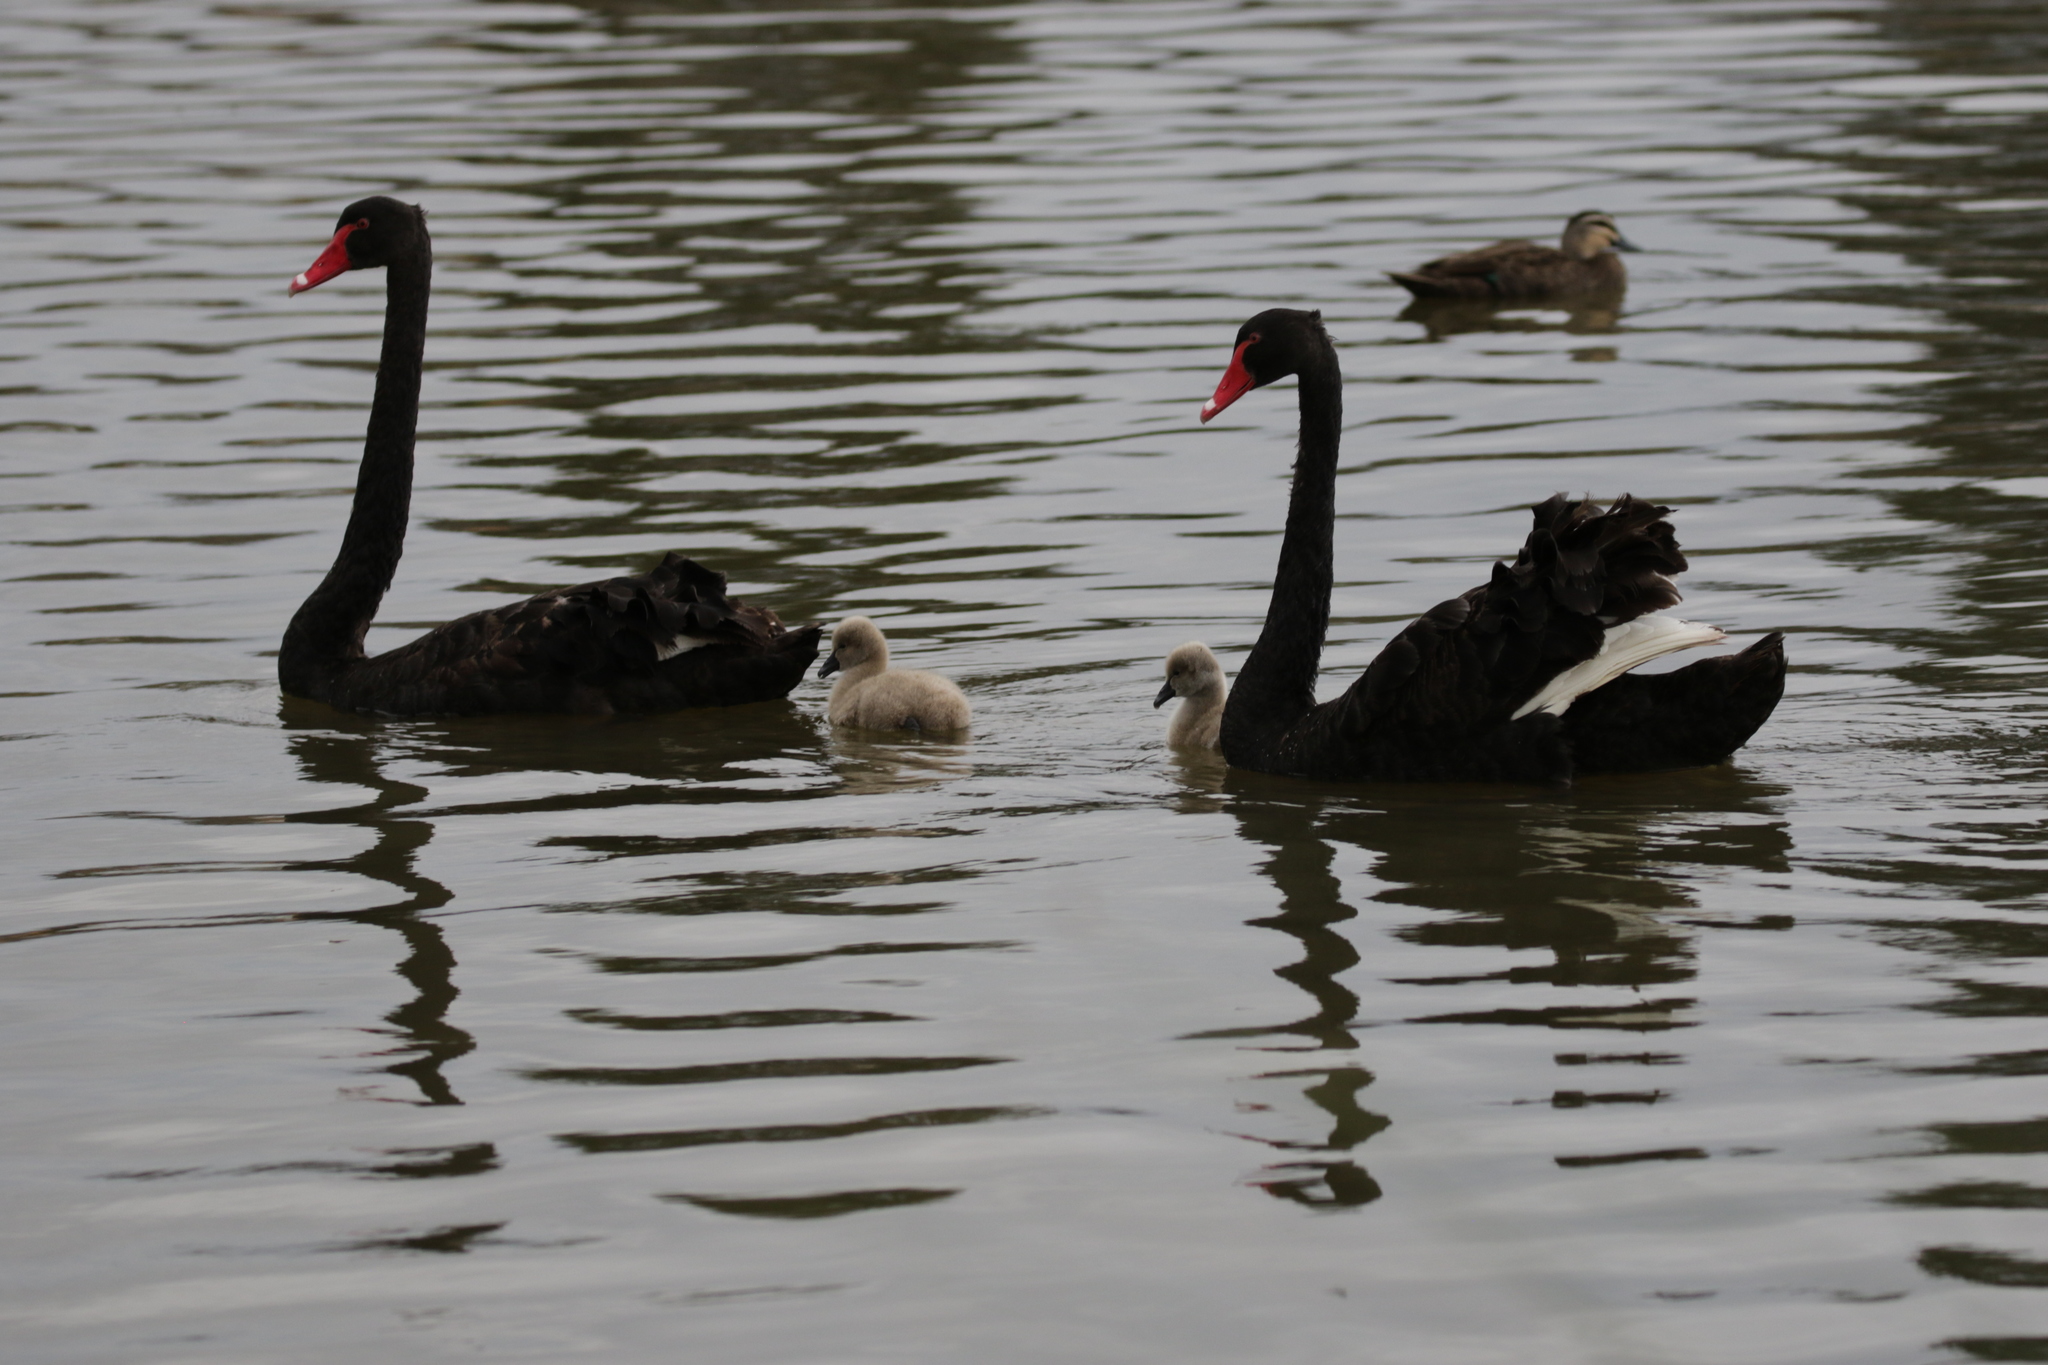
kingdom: Animalia
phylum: Chordata
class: Aves
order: Anseriformes
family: Anatidae
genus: Cygnus
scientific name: Cygnus atratus
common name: Black swan
